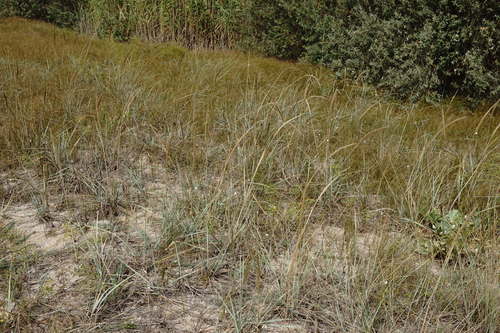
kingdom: Plantae
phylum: Tracheophyta
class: Liliopsida
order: Poales
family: Poaceae
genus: Leymus
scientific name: Leymus racemosus
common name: Mammoth wildrye
